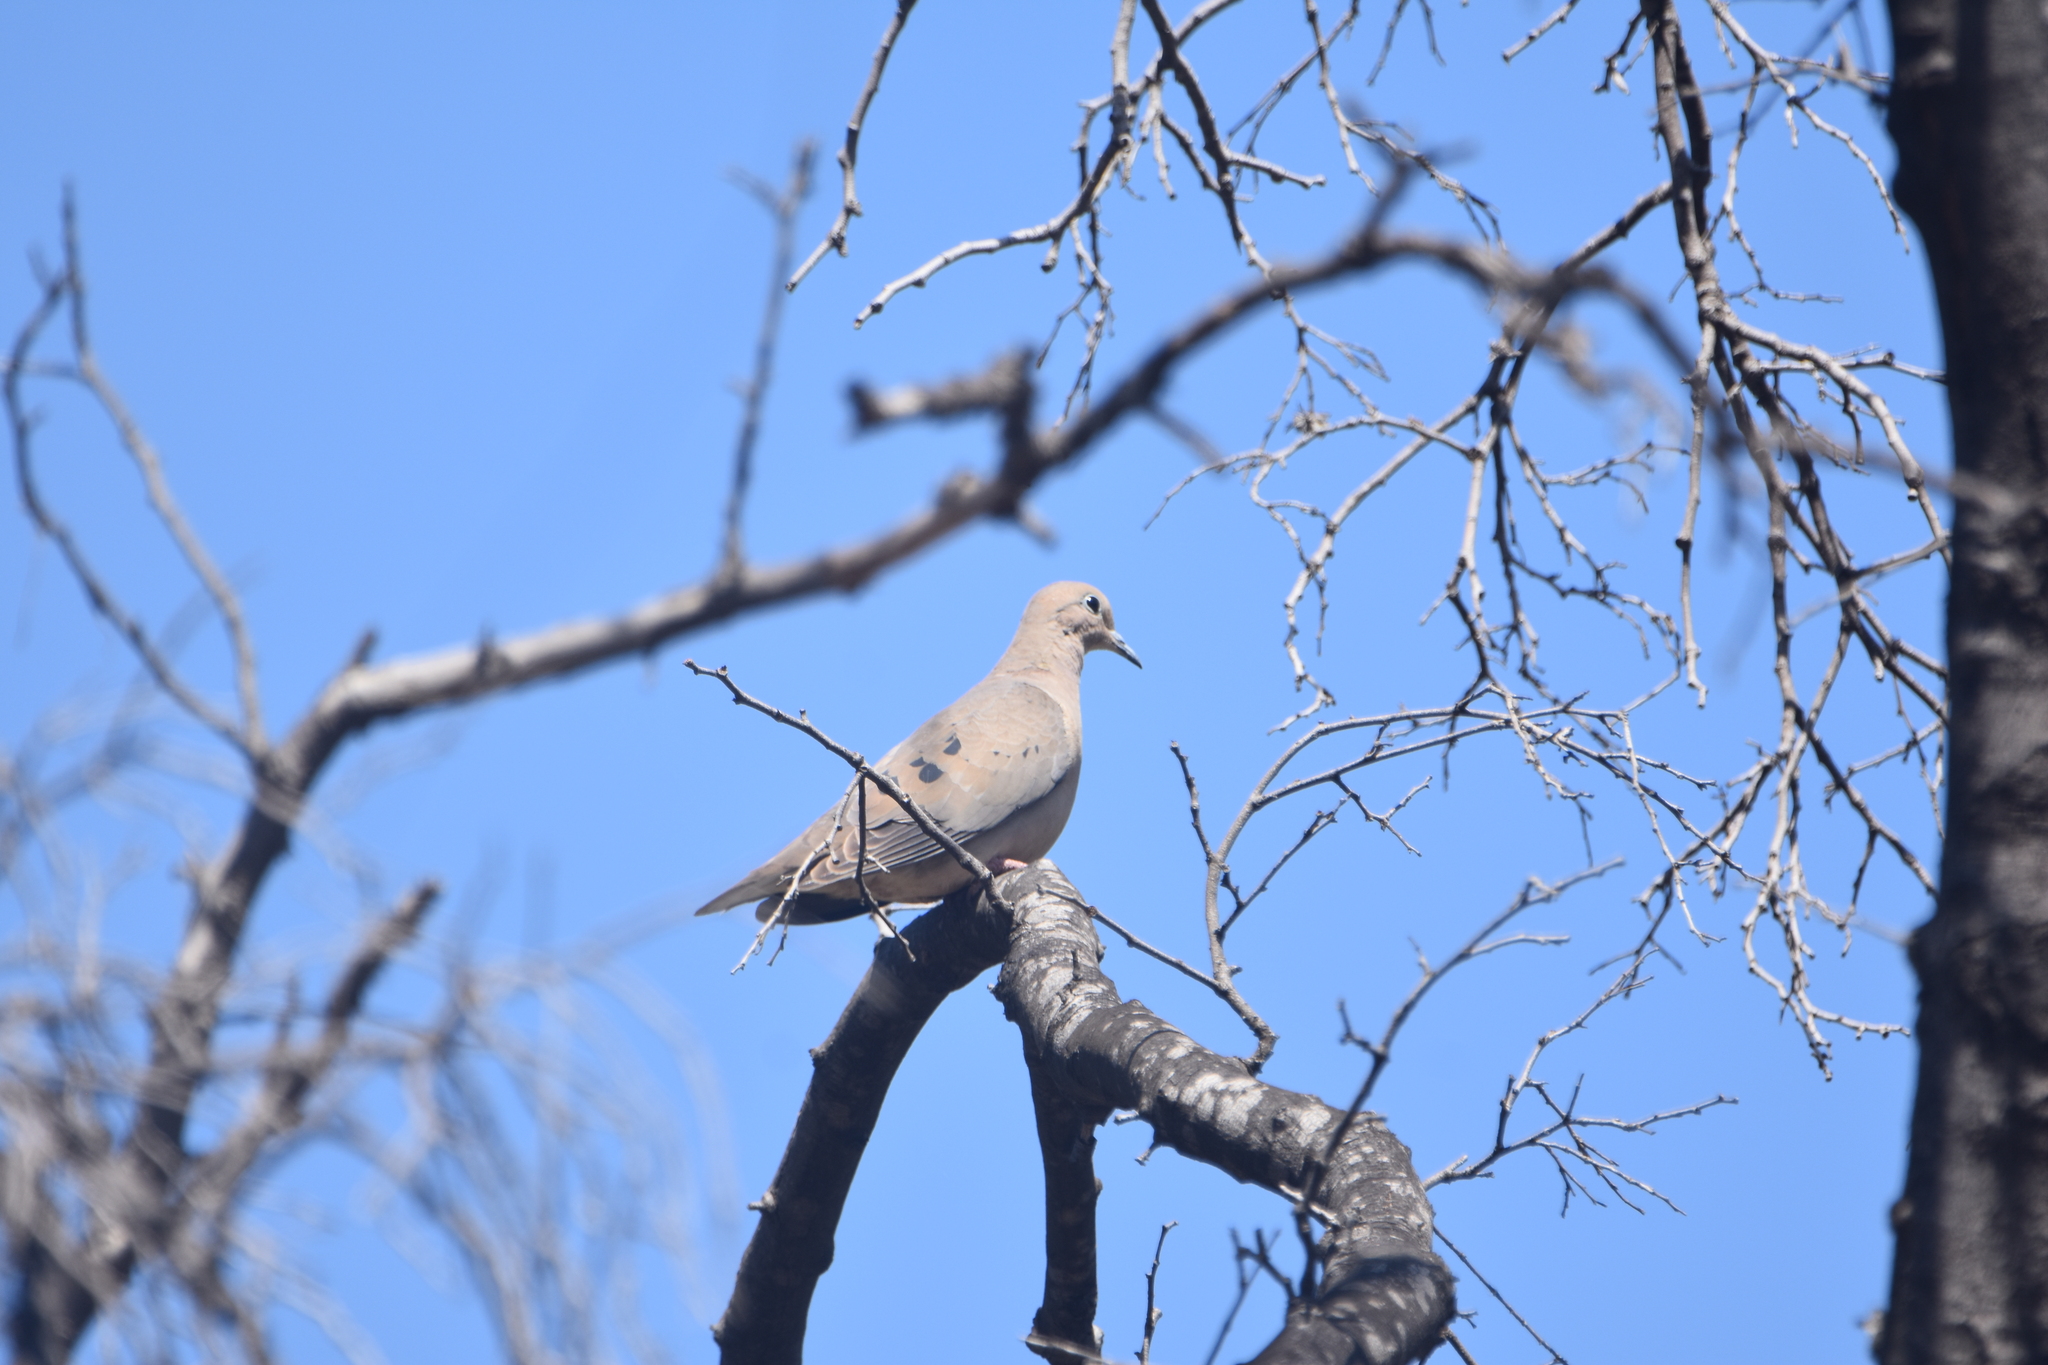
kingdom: Animalia
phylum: Chordata
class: Aves
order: Columbiformes
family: Columbidae
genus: Zenaida
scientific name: Zenaida auriculata
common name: Eared dove
